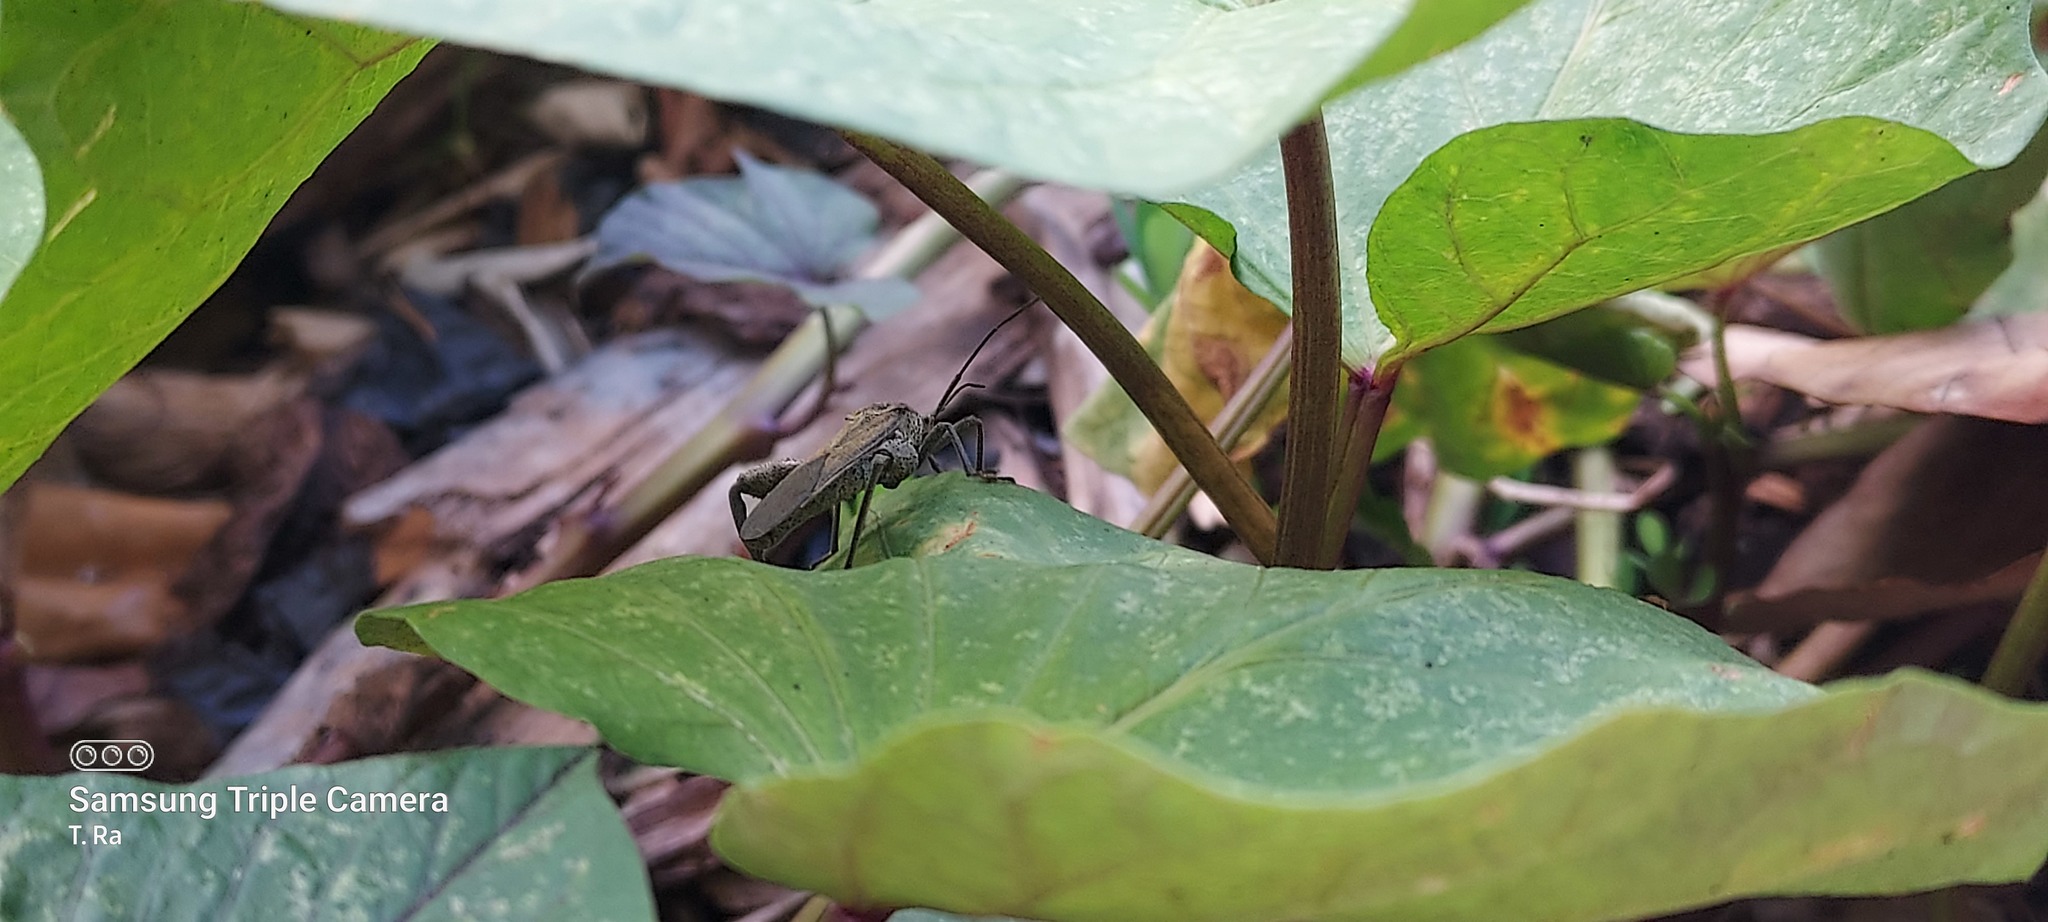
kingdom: Animalia
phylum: Arthropoda
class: Insecta
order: Hemiptera
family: Coreidae
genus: Physomerus
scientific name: Physomerus grossipes
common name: Squash bug
